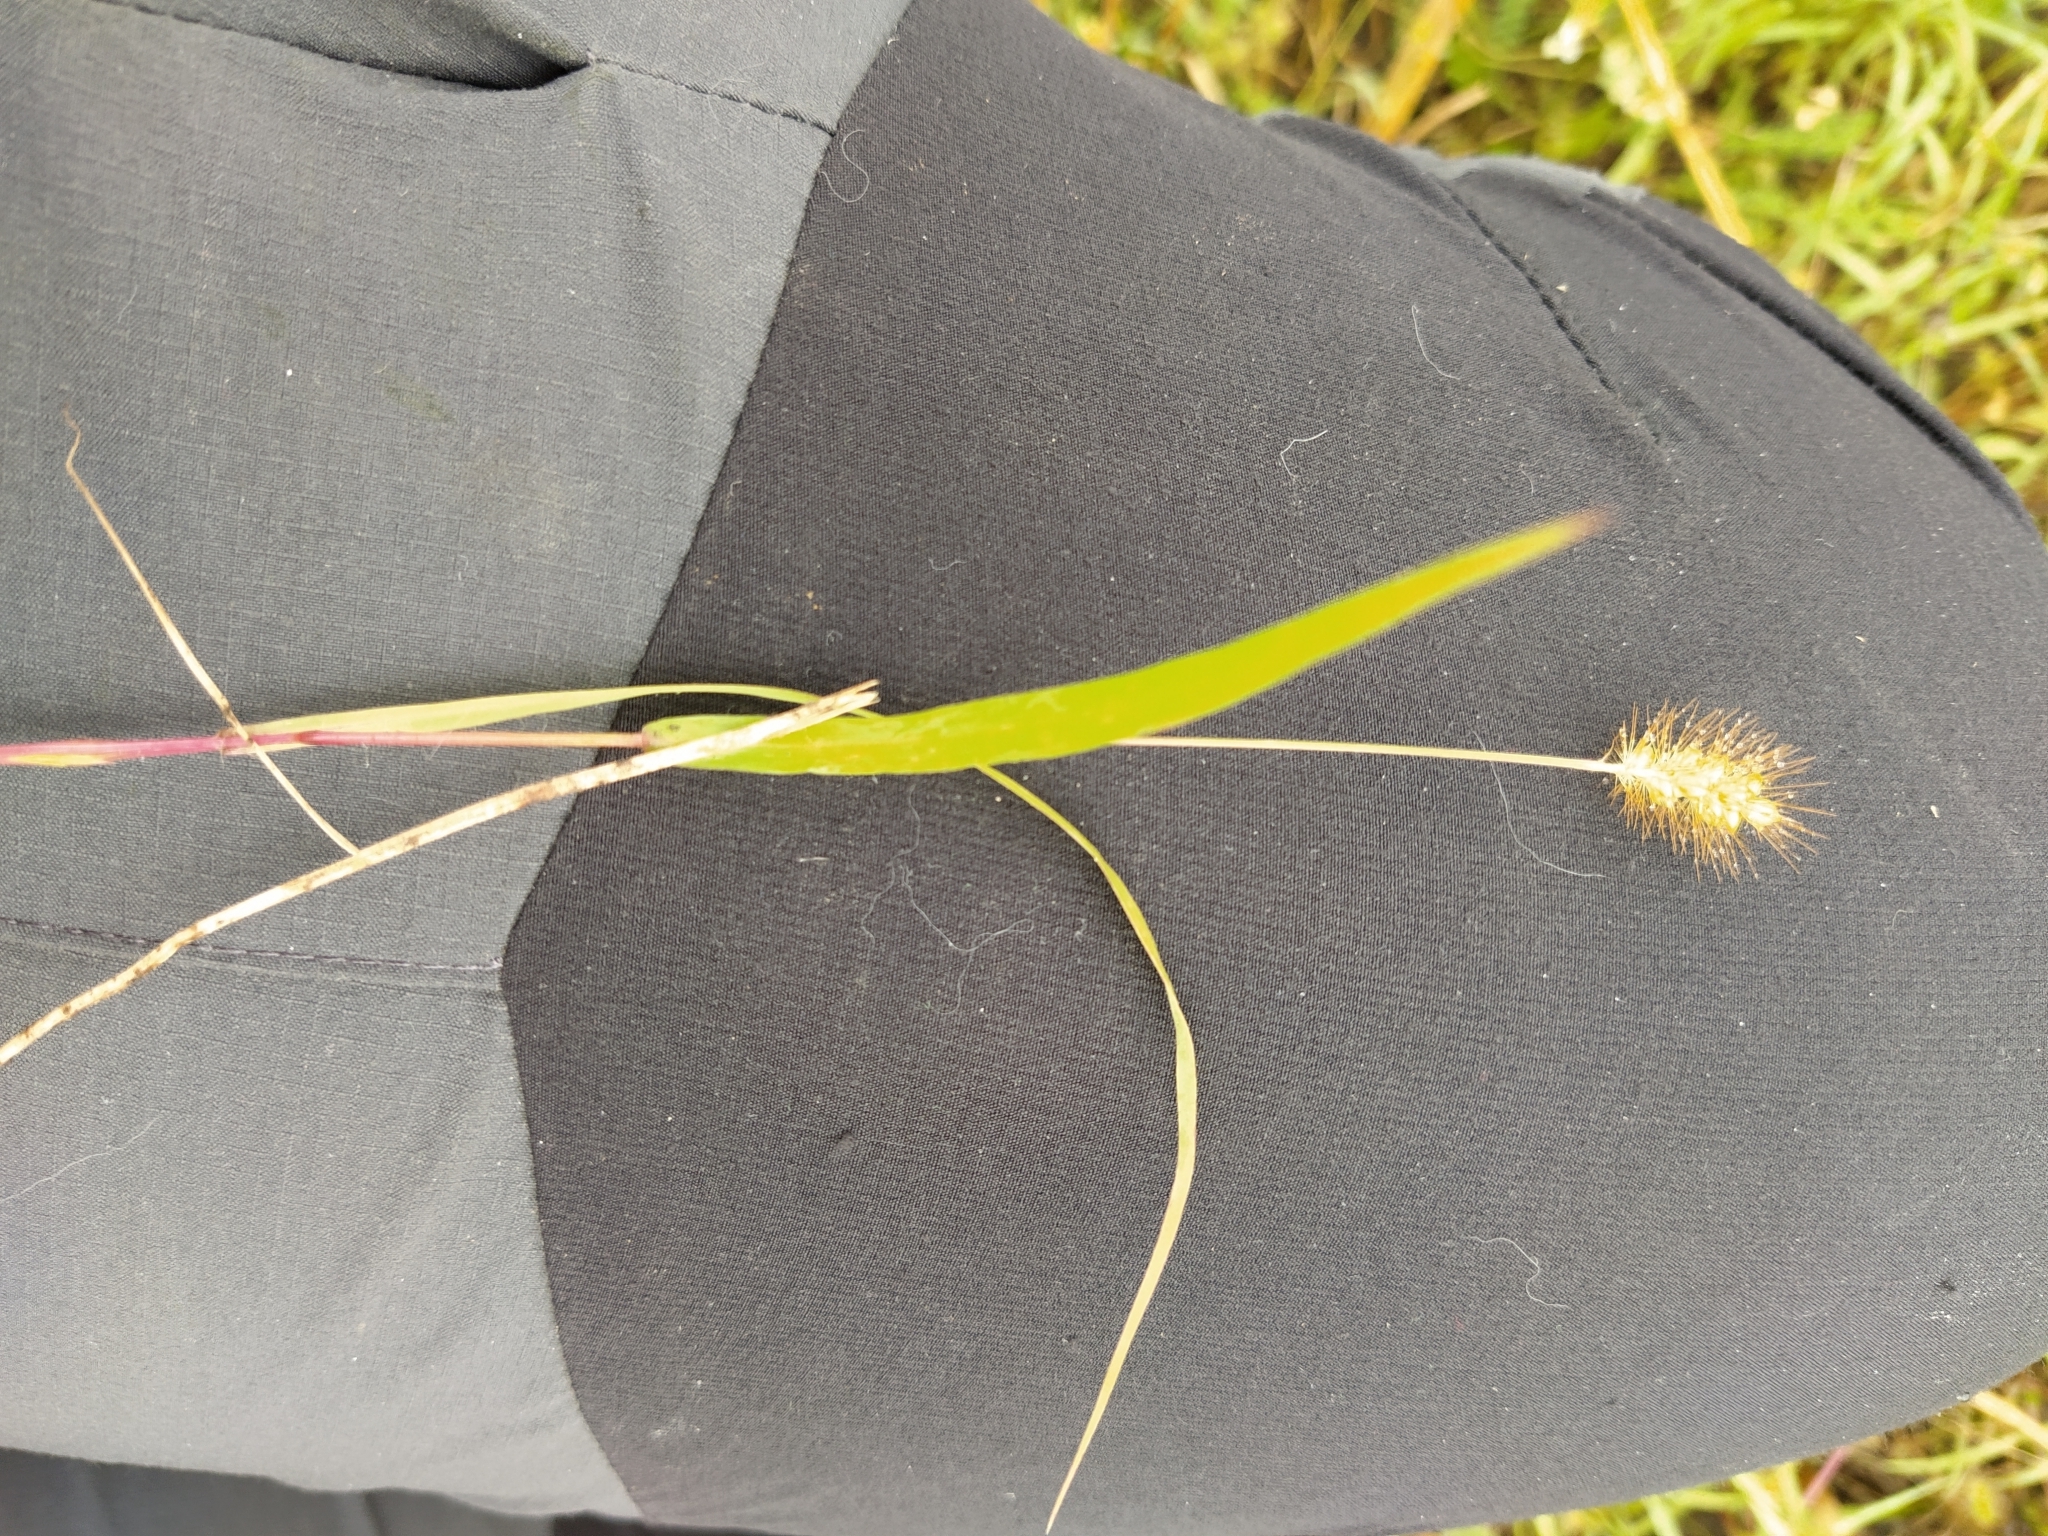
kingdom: Plantae
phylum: Tracheophyta
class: Liliopsida
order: Poales
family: Poaceae
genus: Setaria
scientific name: Setaria pumila
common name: Yellow bristle-grass
